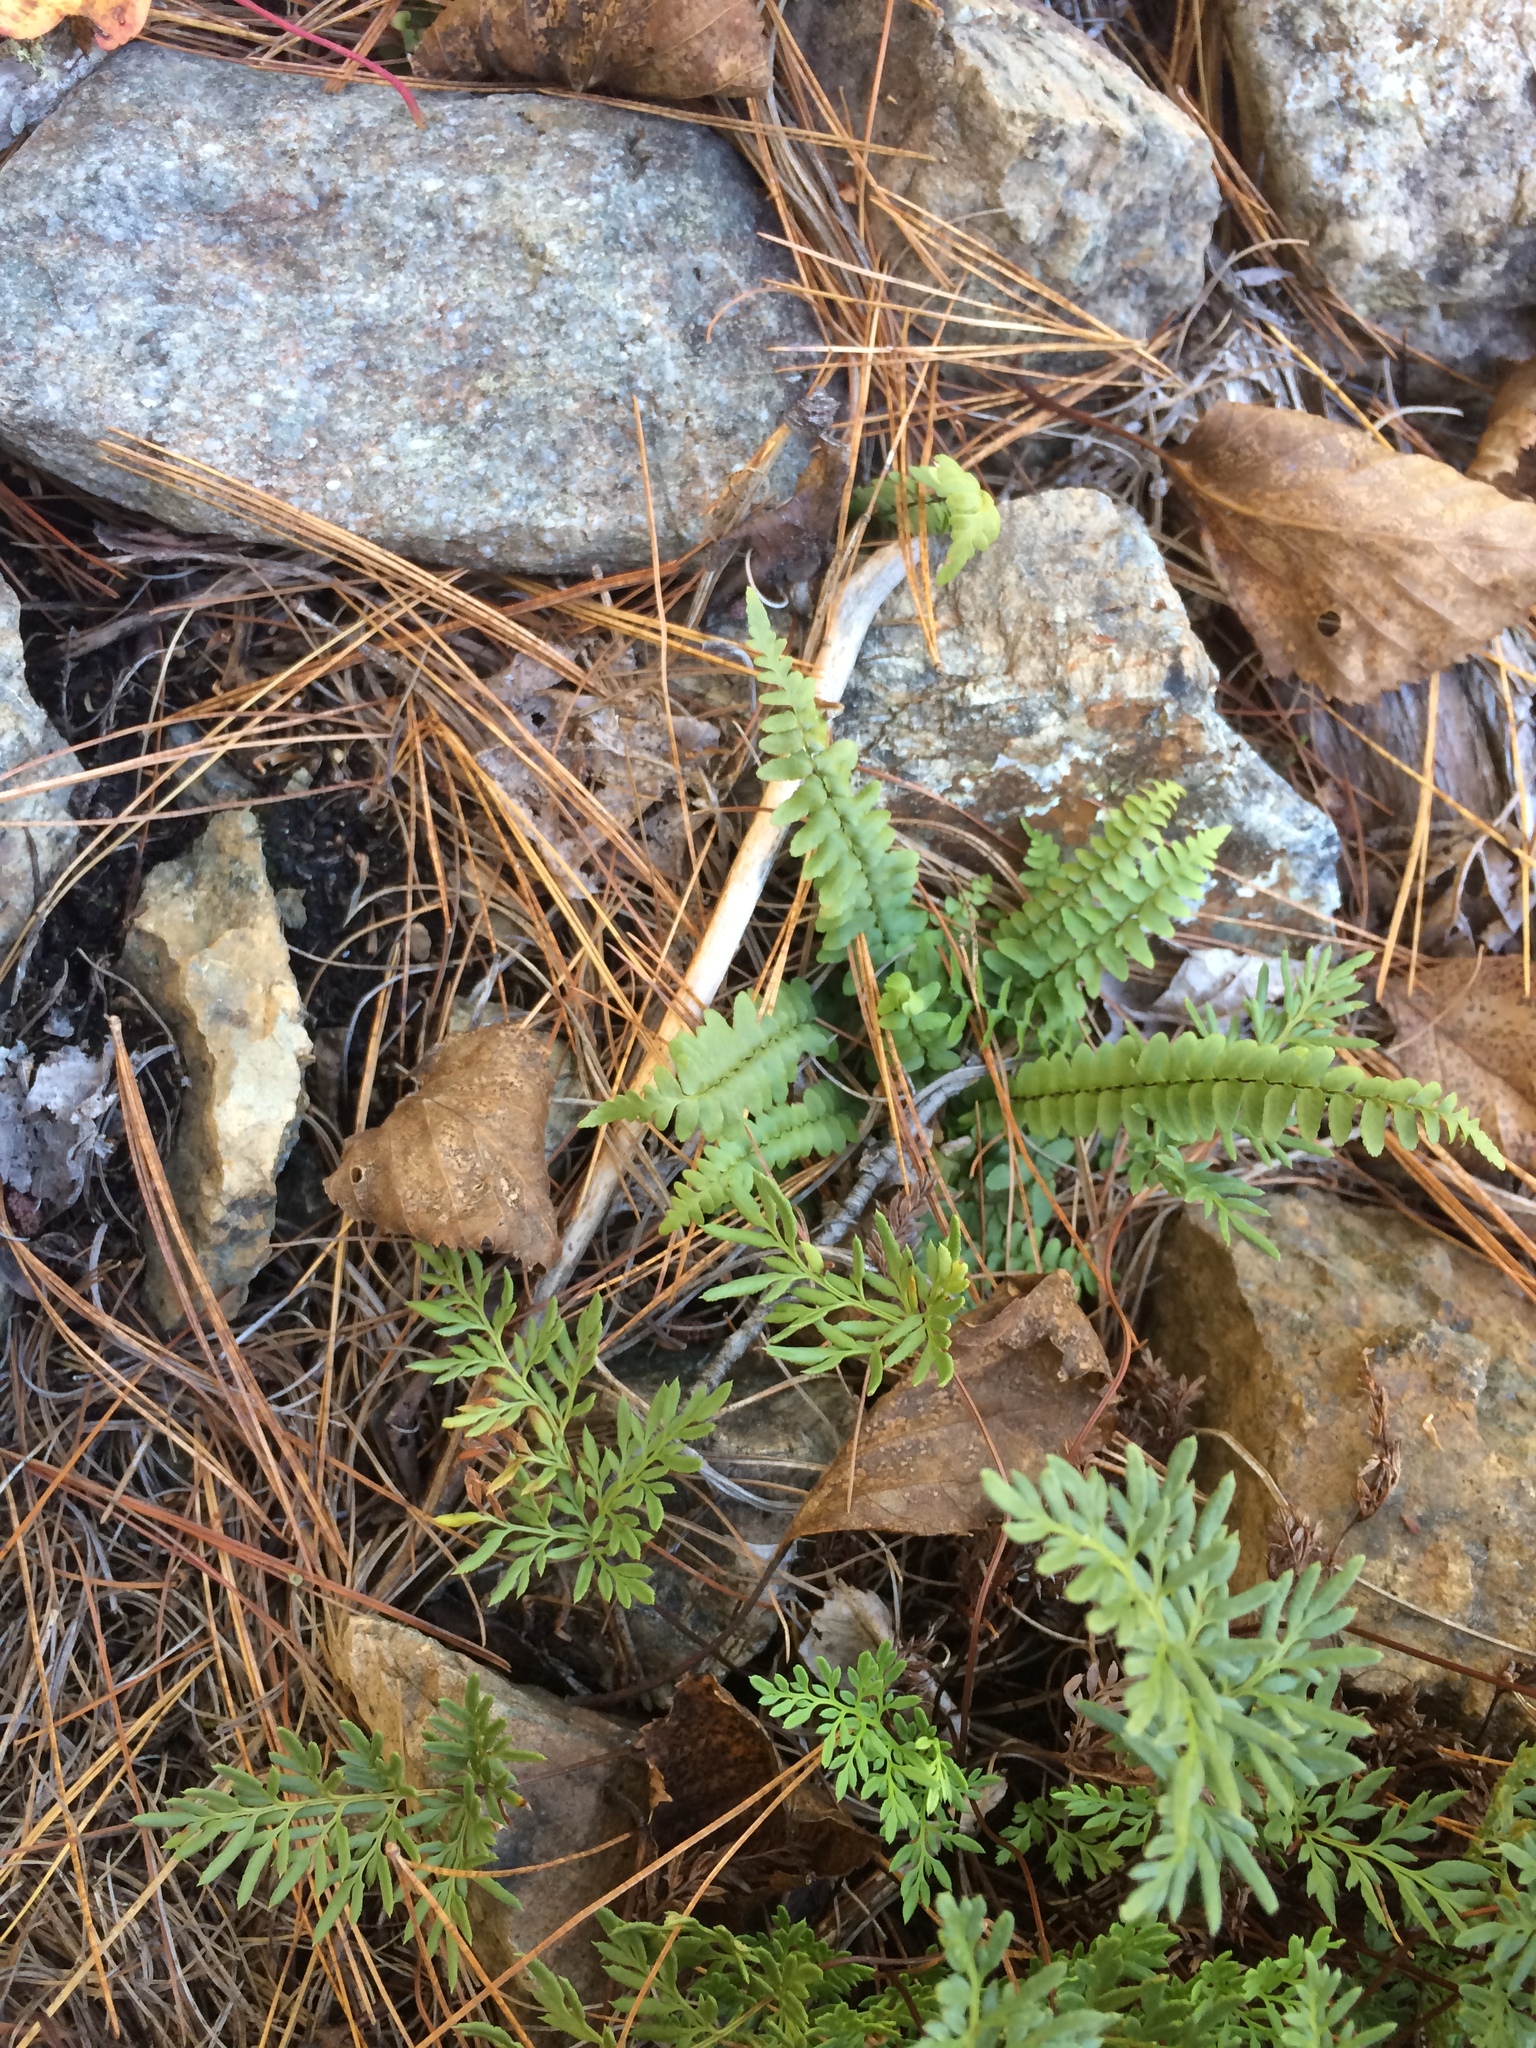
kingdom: Plantae
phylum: Tracheophyta
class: Polypodiopsida
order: Polypodiales
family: Aspleniaceae
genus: Asplenium
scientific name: Asplenium platyneuron
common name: Ebony spleenwort
